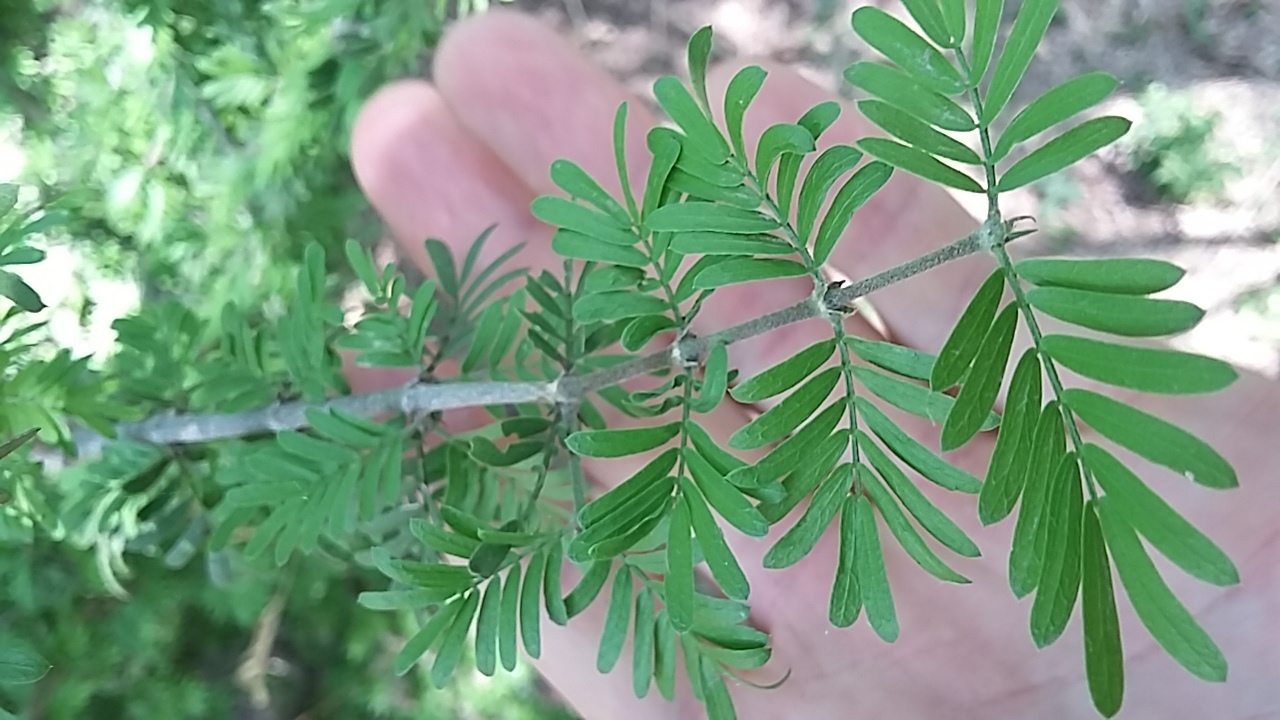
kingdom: Plantae
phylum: Tracheophyta
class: Magnoliopsida
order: Zygophyllales
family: Zygophyllaceae
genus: Porlieria
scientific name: Porlieria angustifolia
